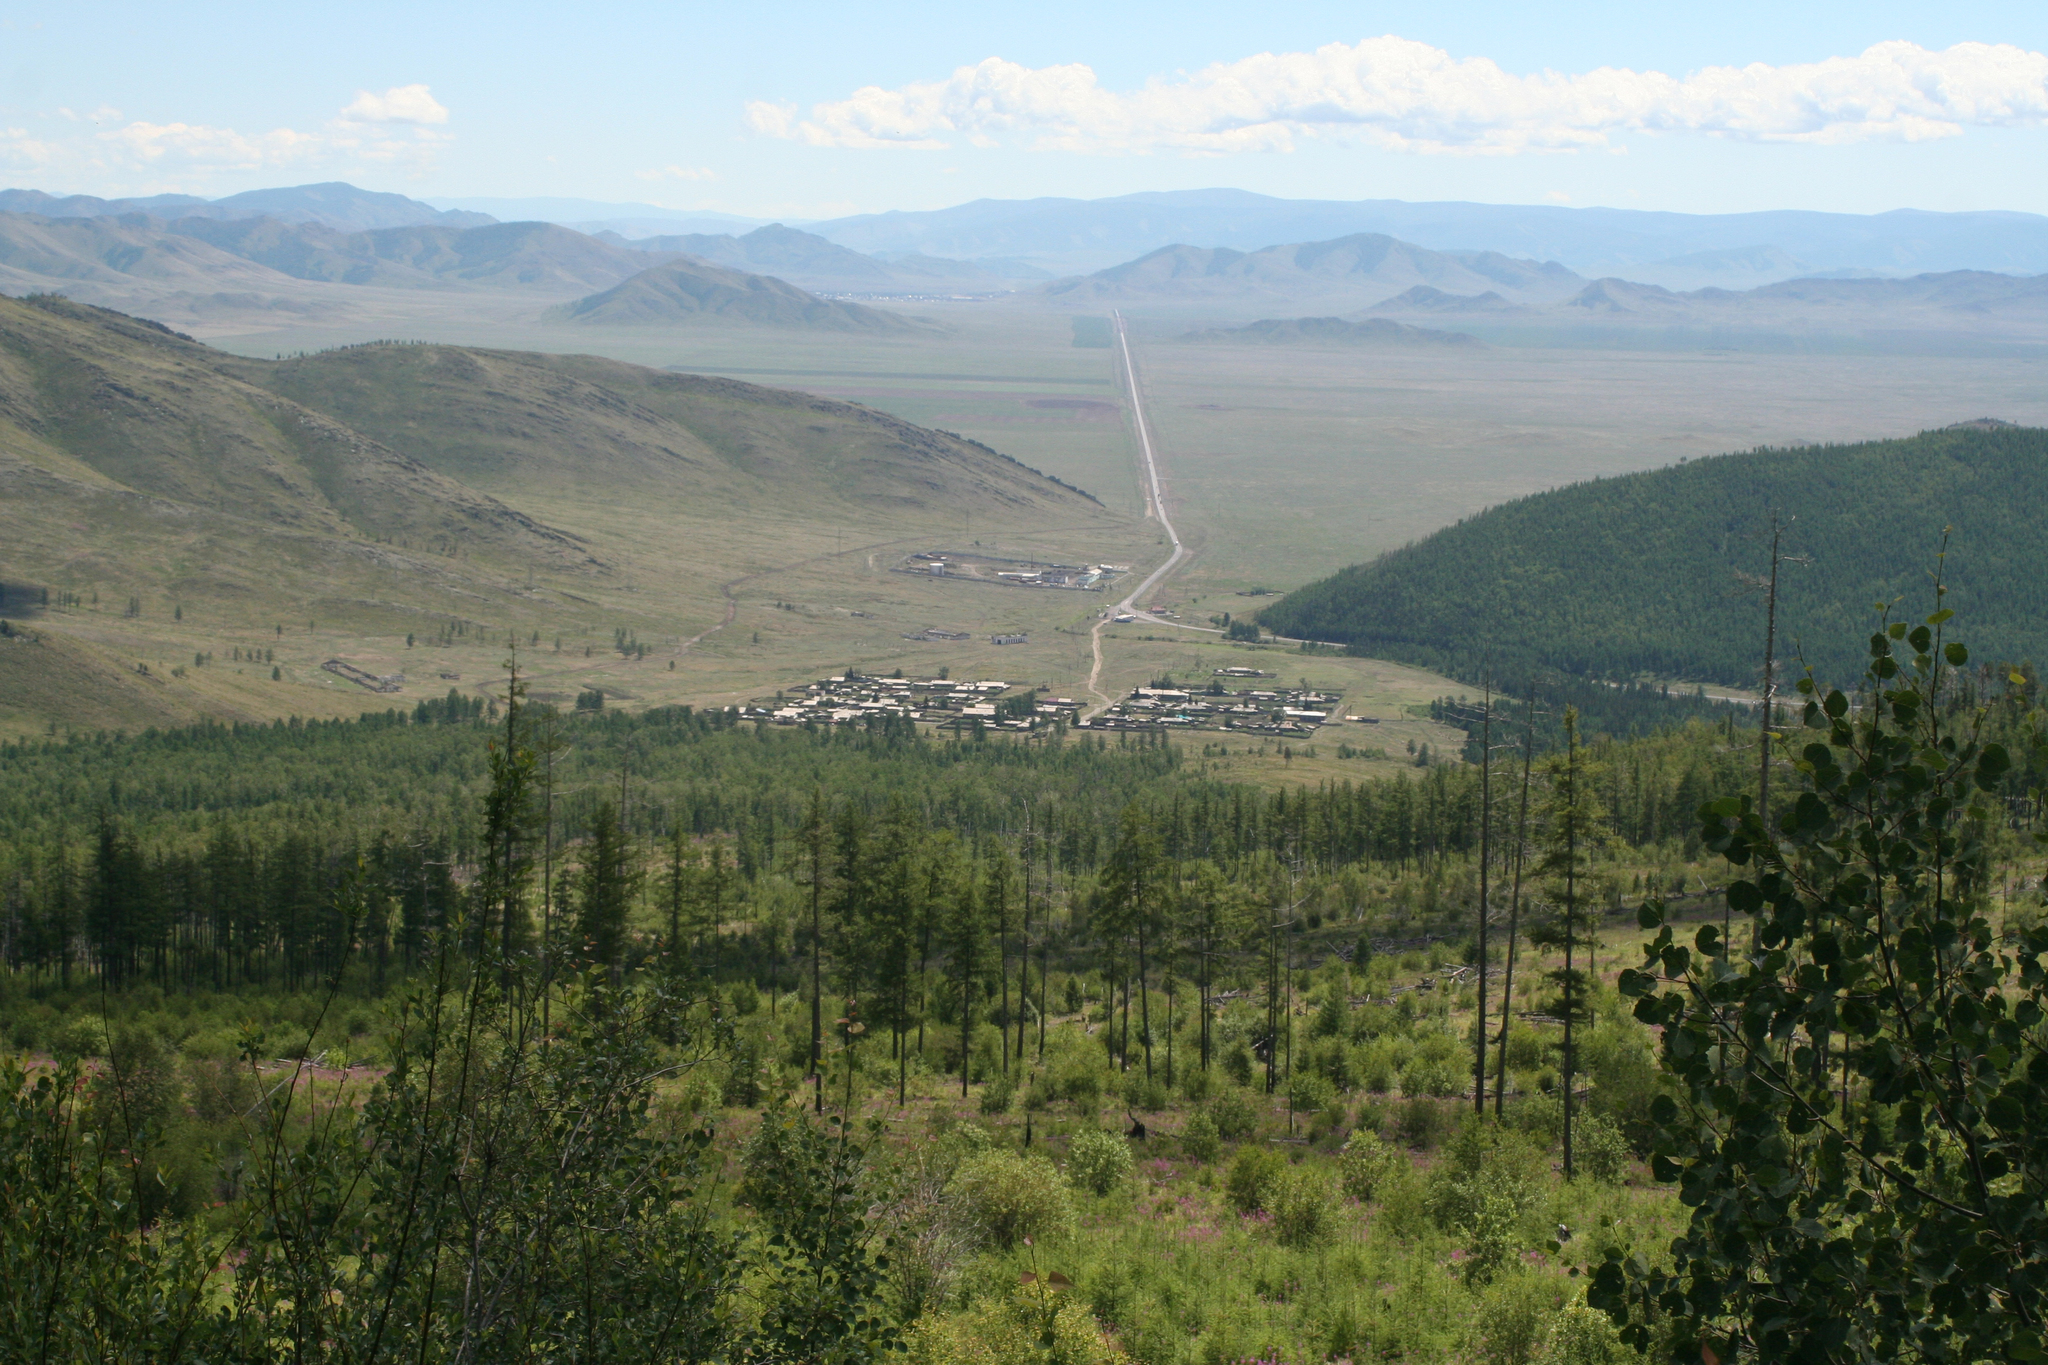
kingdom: Plantae
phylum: Tracheophyta
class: Magnoliopsida
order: Malpighiales
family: Salicaceae
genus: Populus
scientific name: Populus tremula
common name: European aspen
